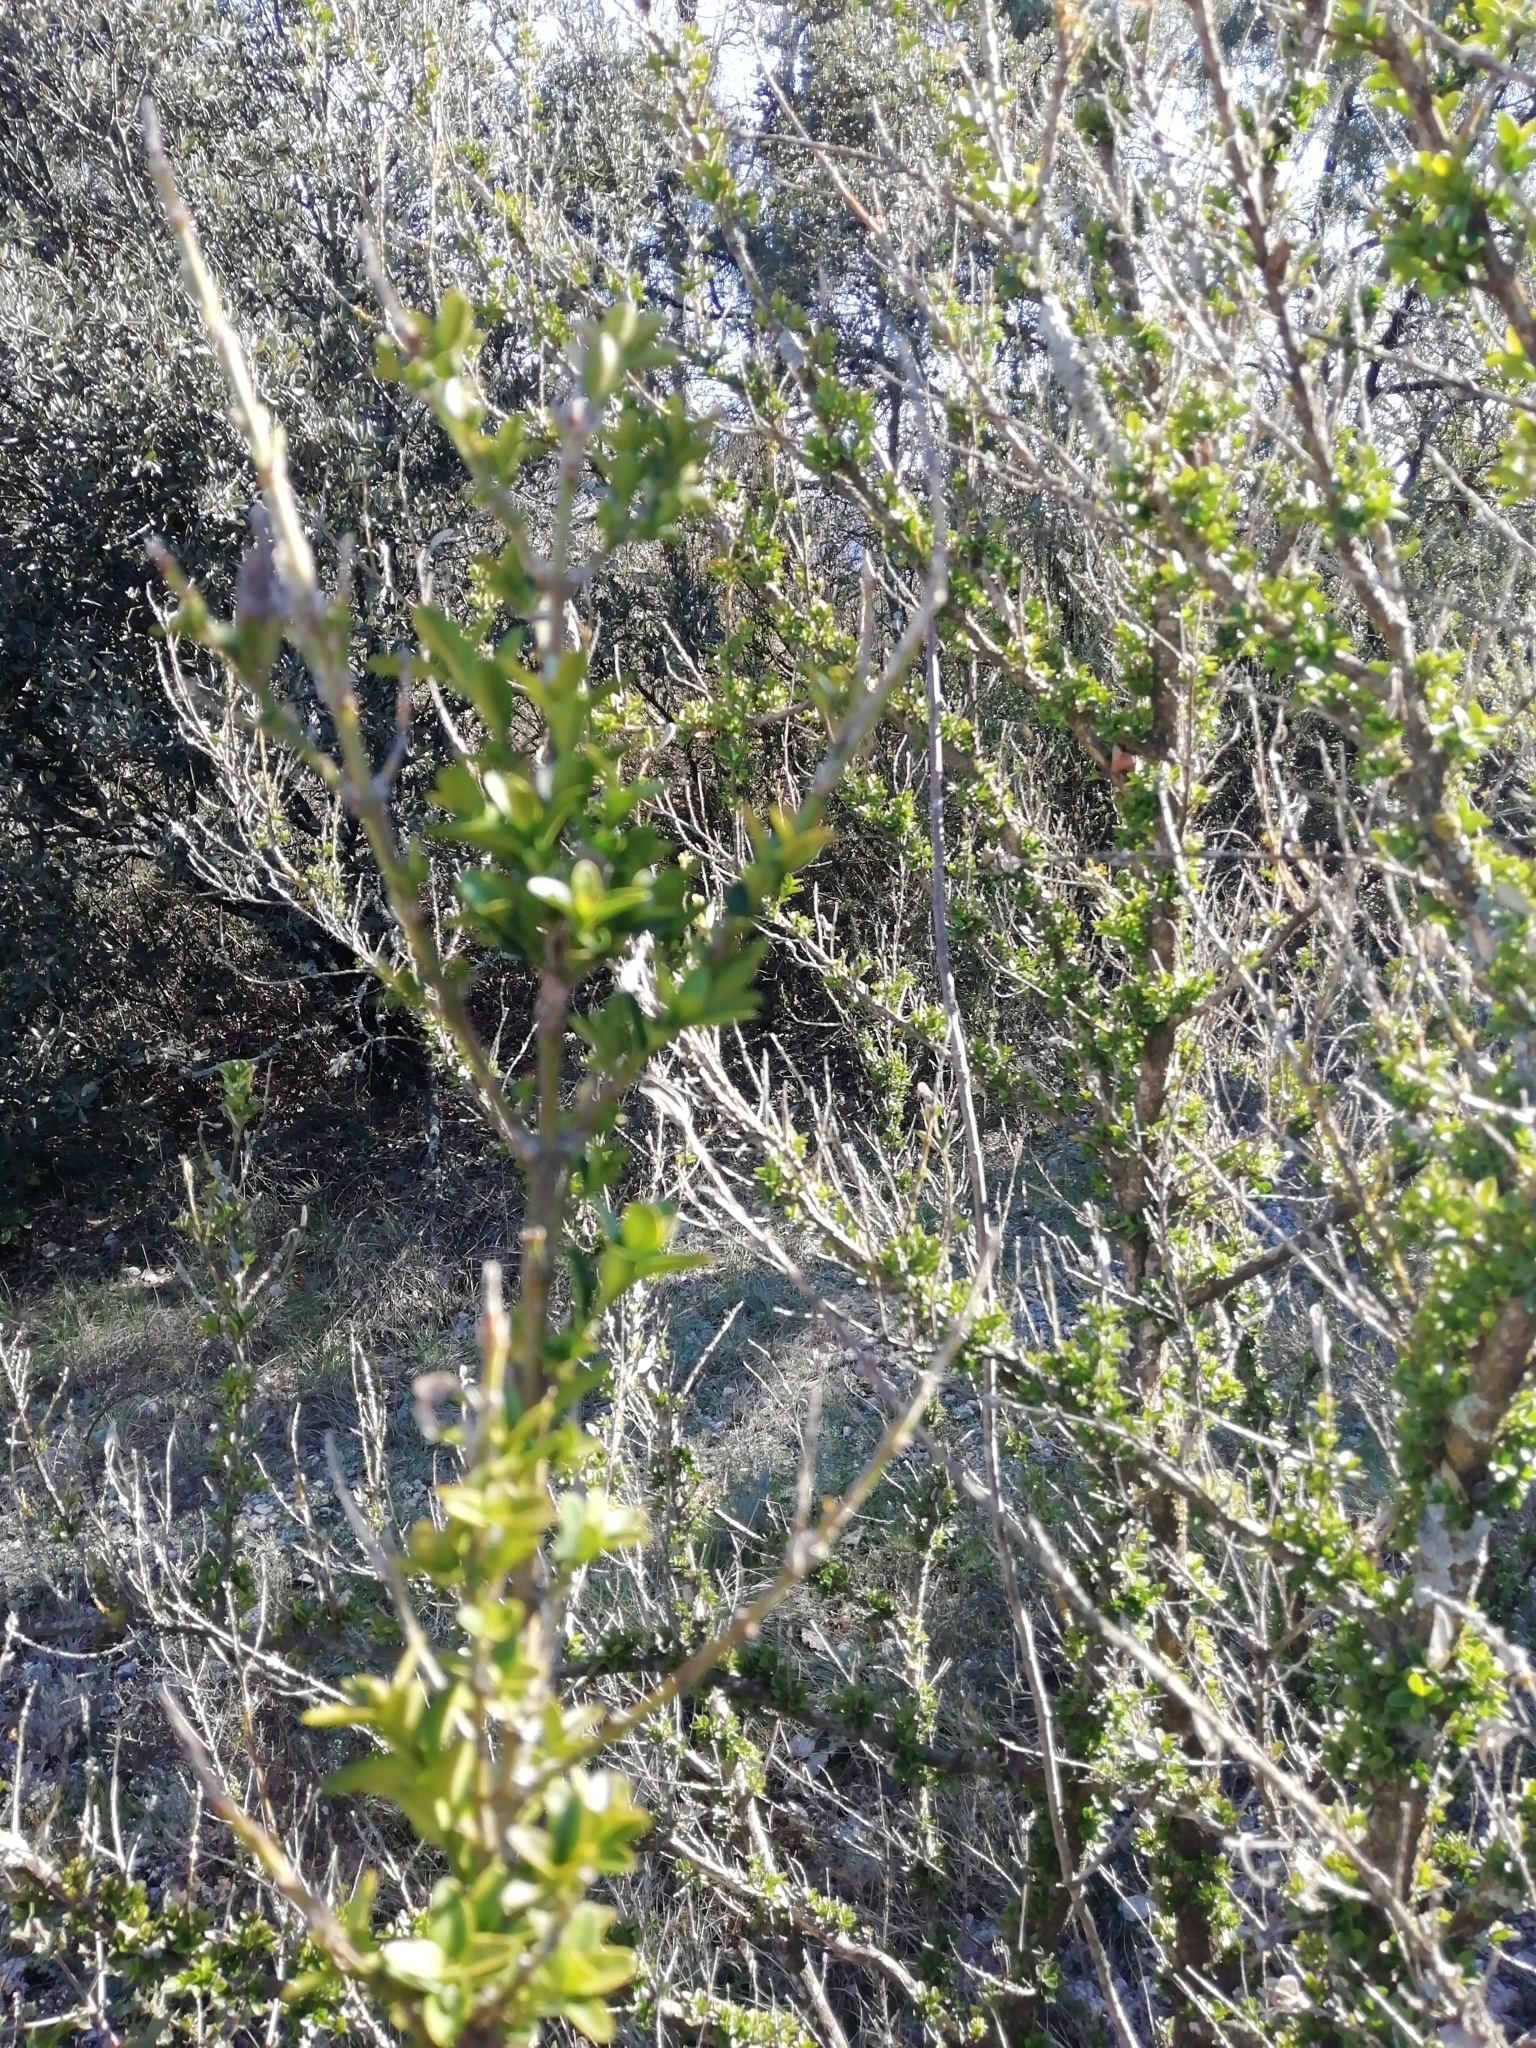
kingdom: Plantae
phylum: Tracheophyta
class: Magnoliopsida
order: Buxales
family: Buxaceae
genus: Buxus
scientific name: Buxus sempervirens
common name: Box
